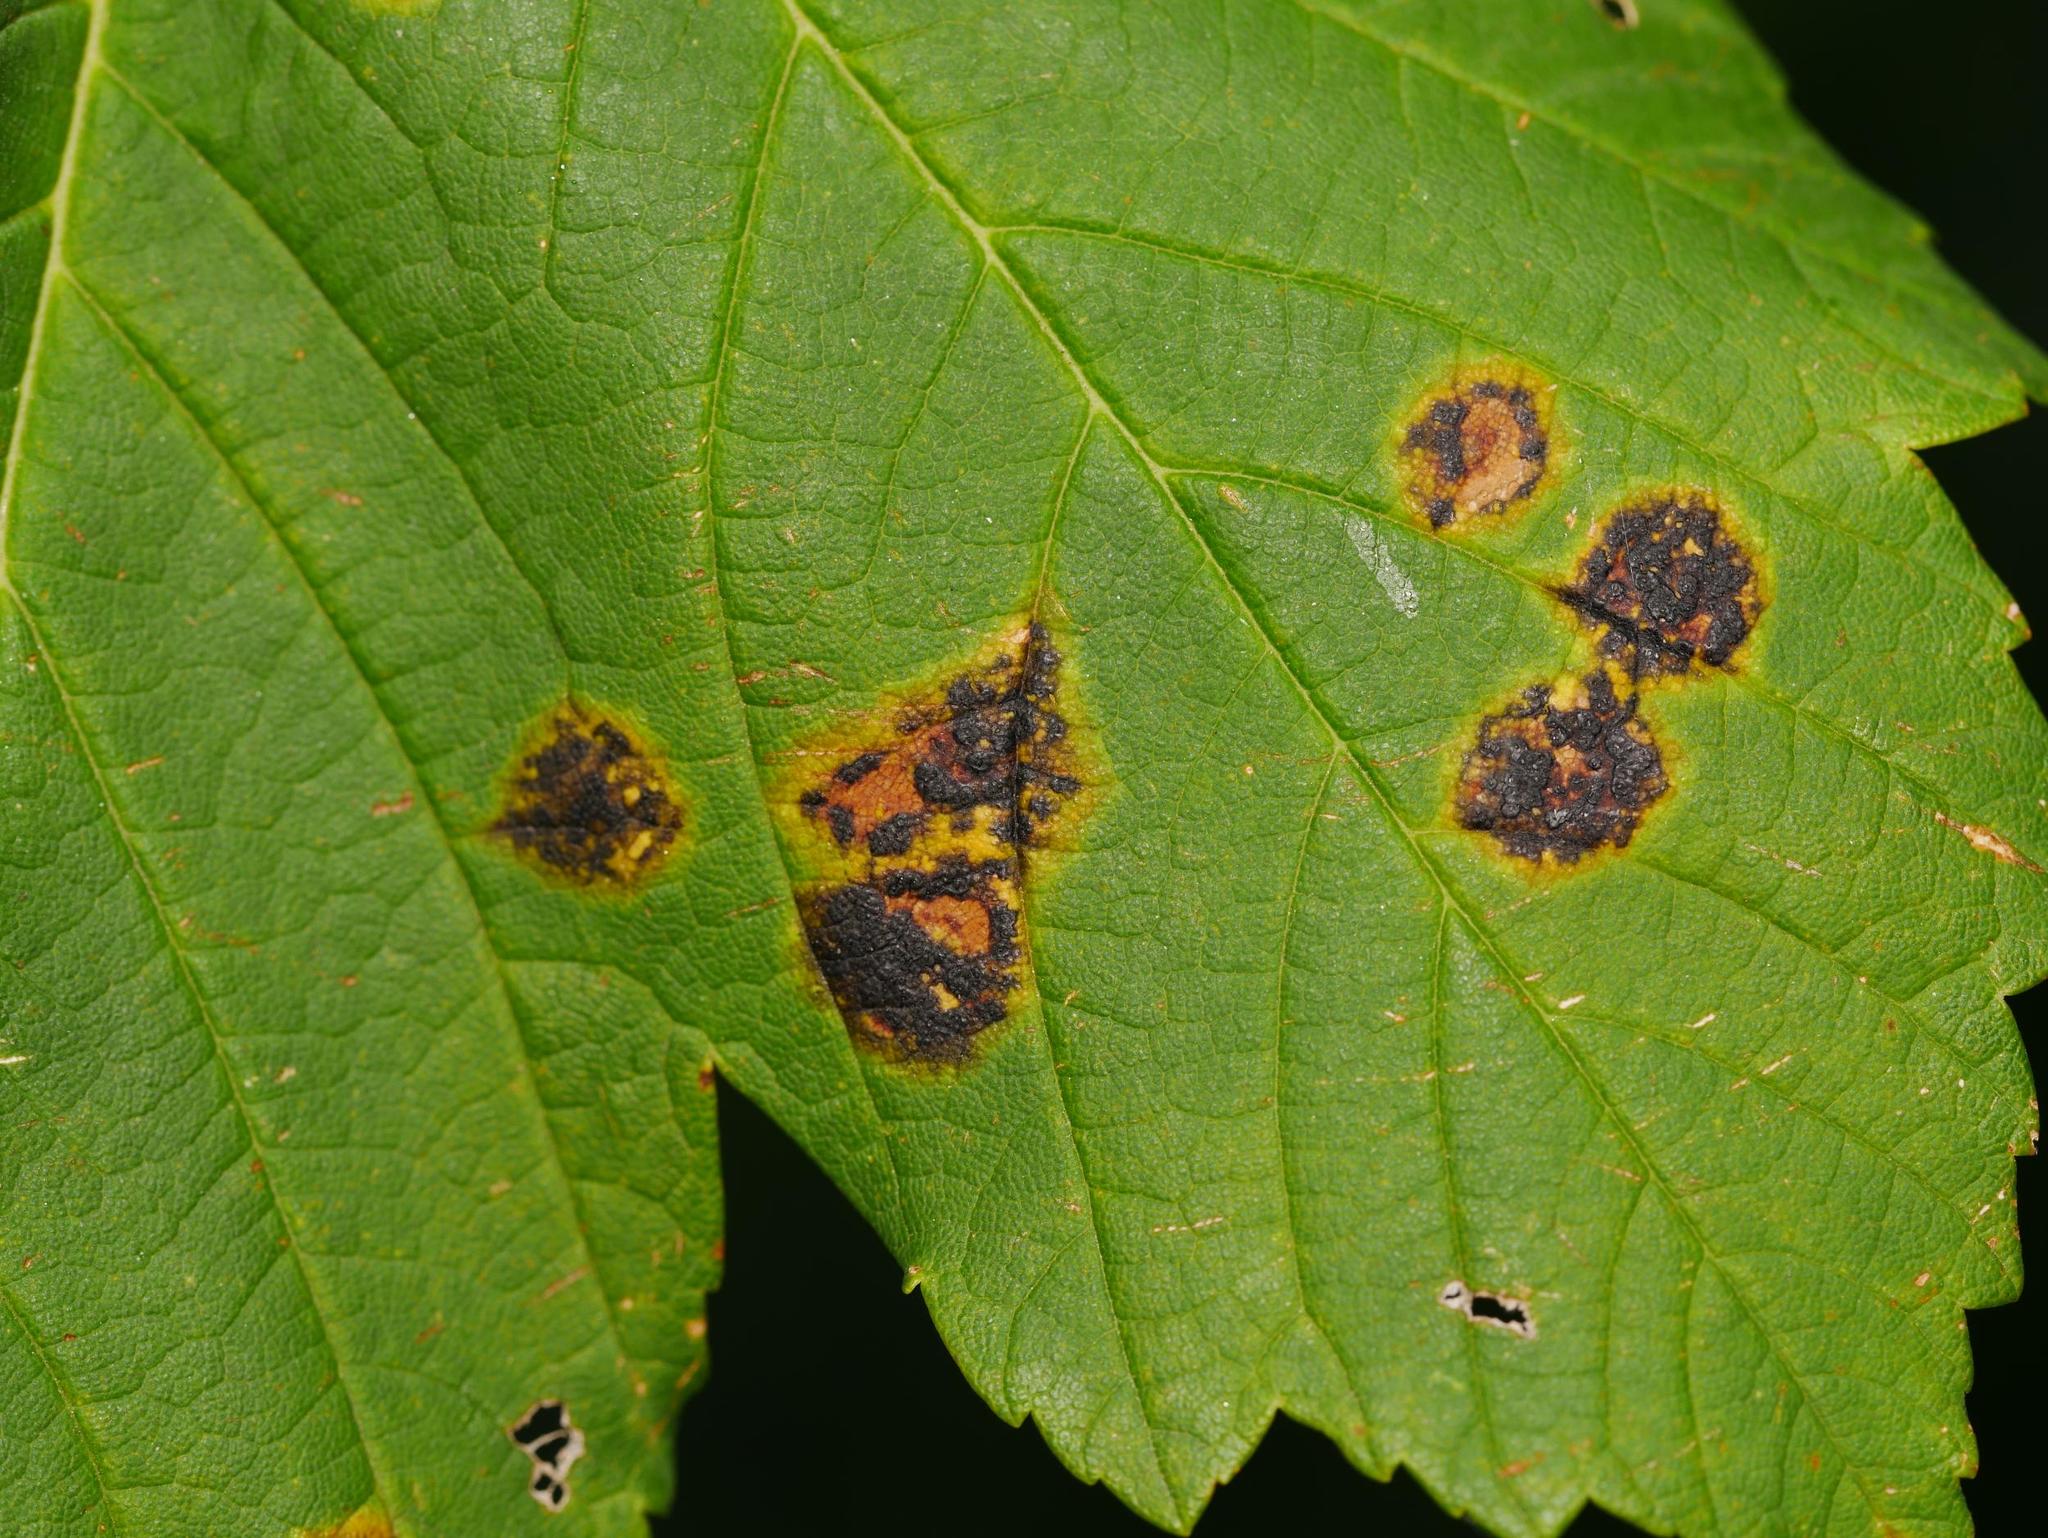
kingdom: Fungi
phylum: Ascomycota
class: Leotiomycetes
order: Rhytismatales
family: Rhytismataceae
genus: Rhytisma
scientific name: Rhytisma acerinum
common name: European tar spot
